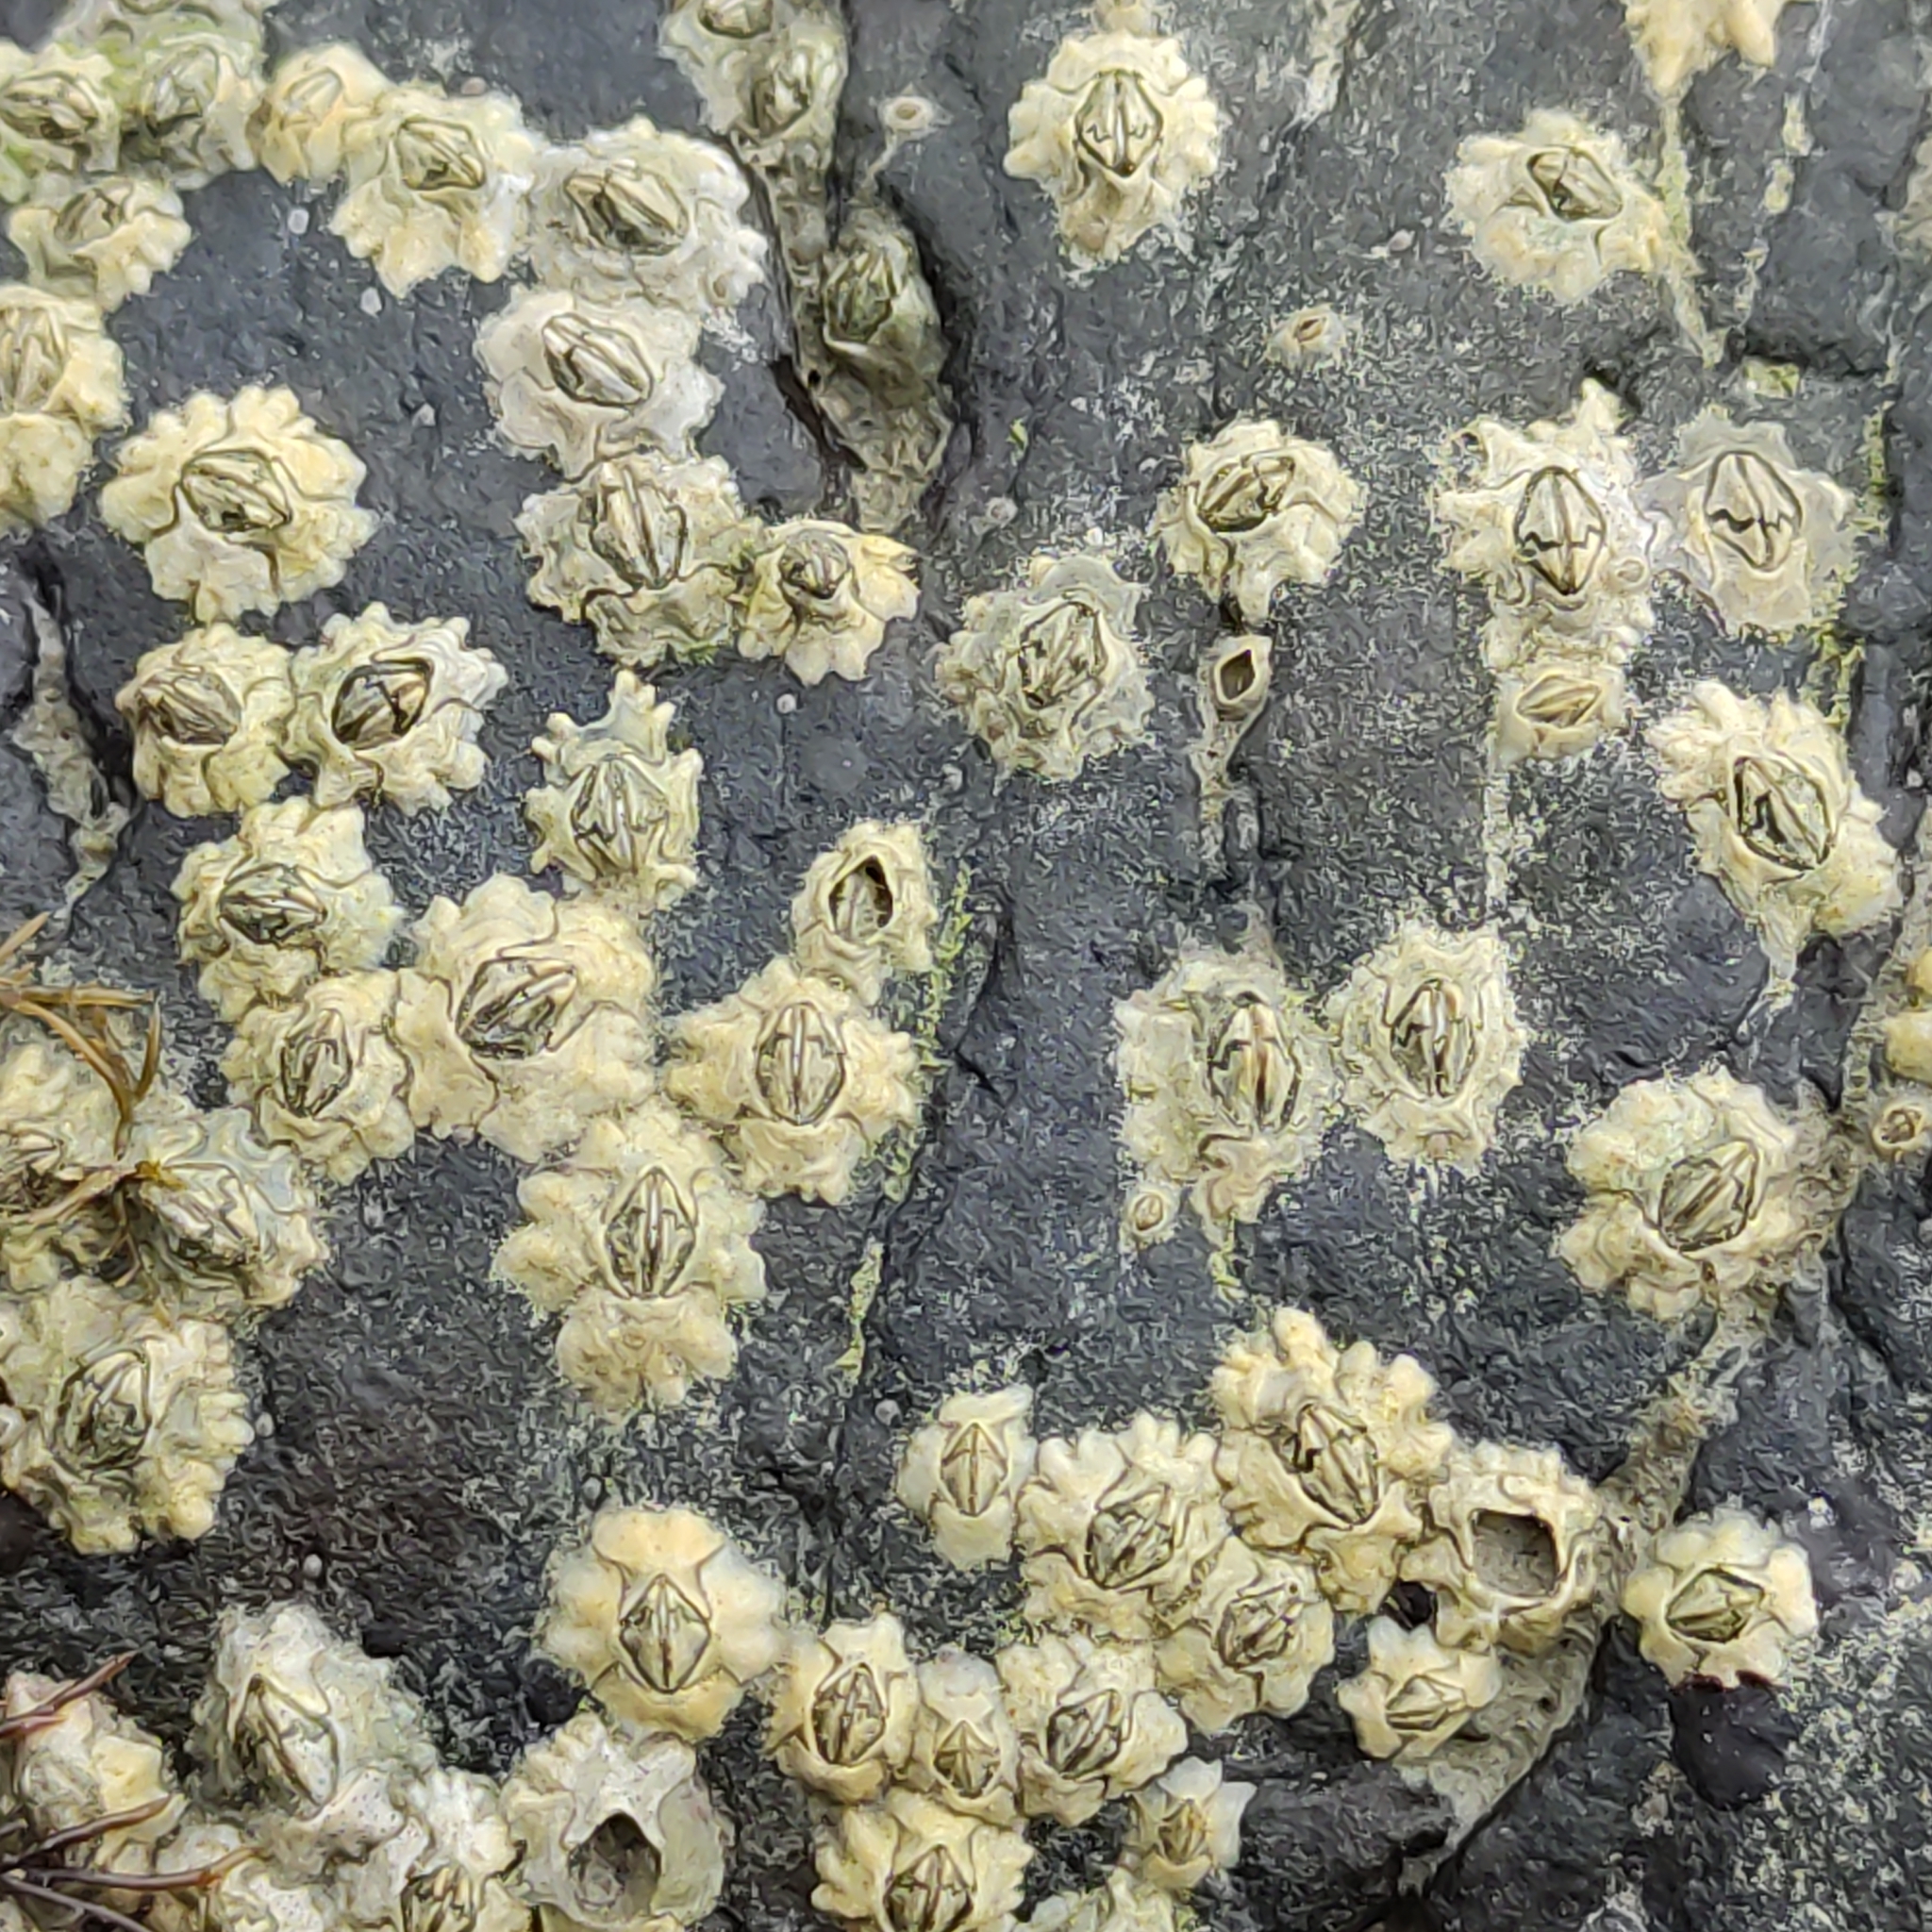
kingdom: Animalia
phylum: Arthropoda
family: Elminiidae
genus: Austrominius
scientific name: Austrominius modestus
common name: Australasian barnacle
